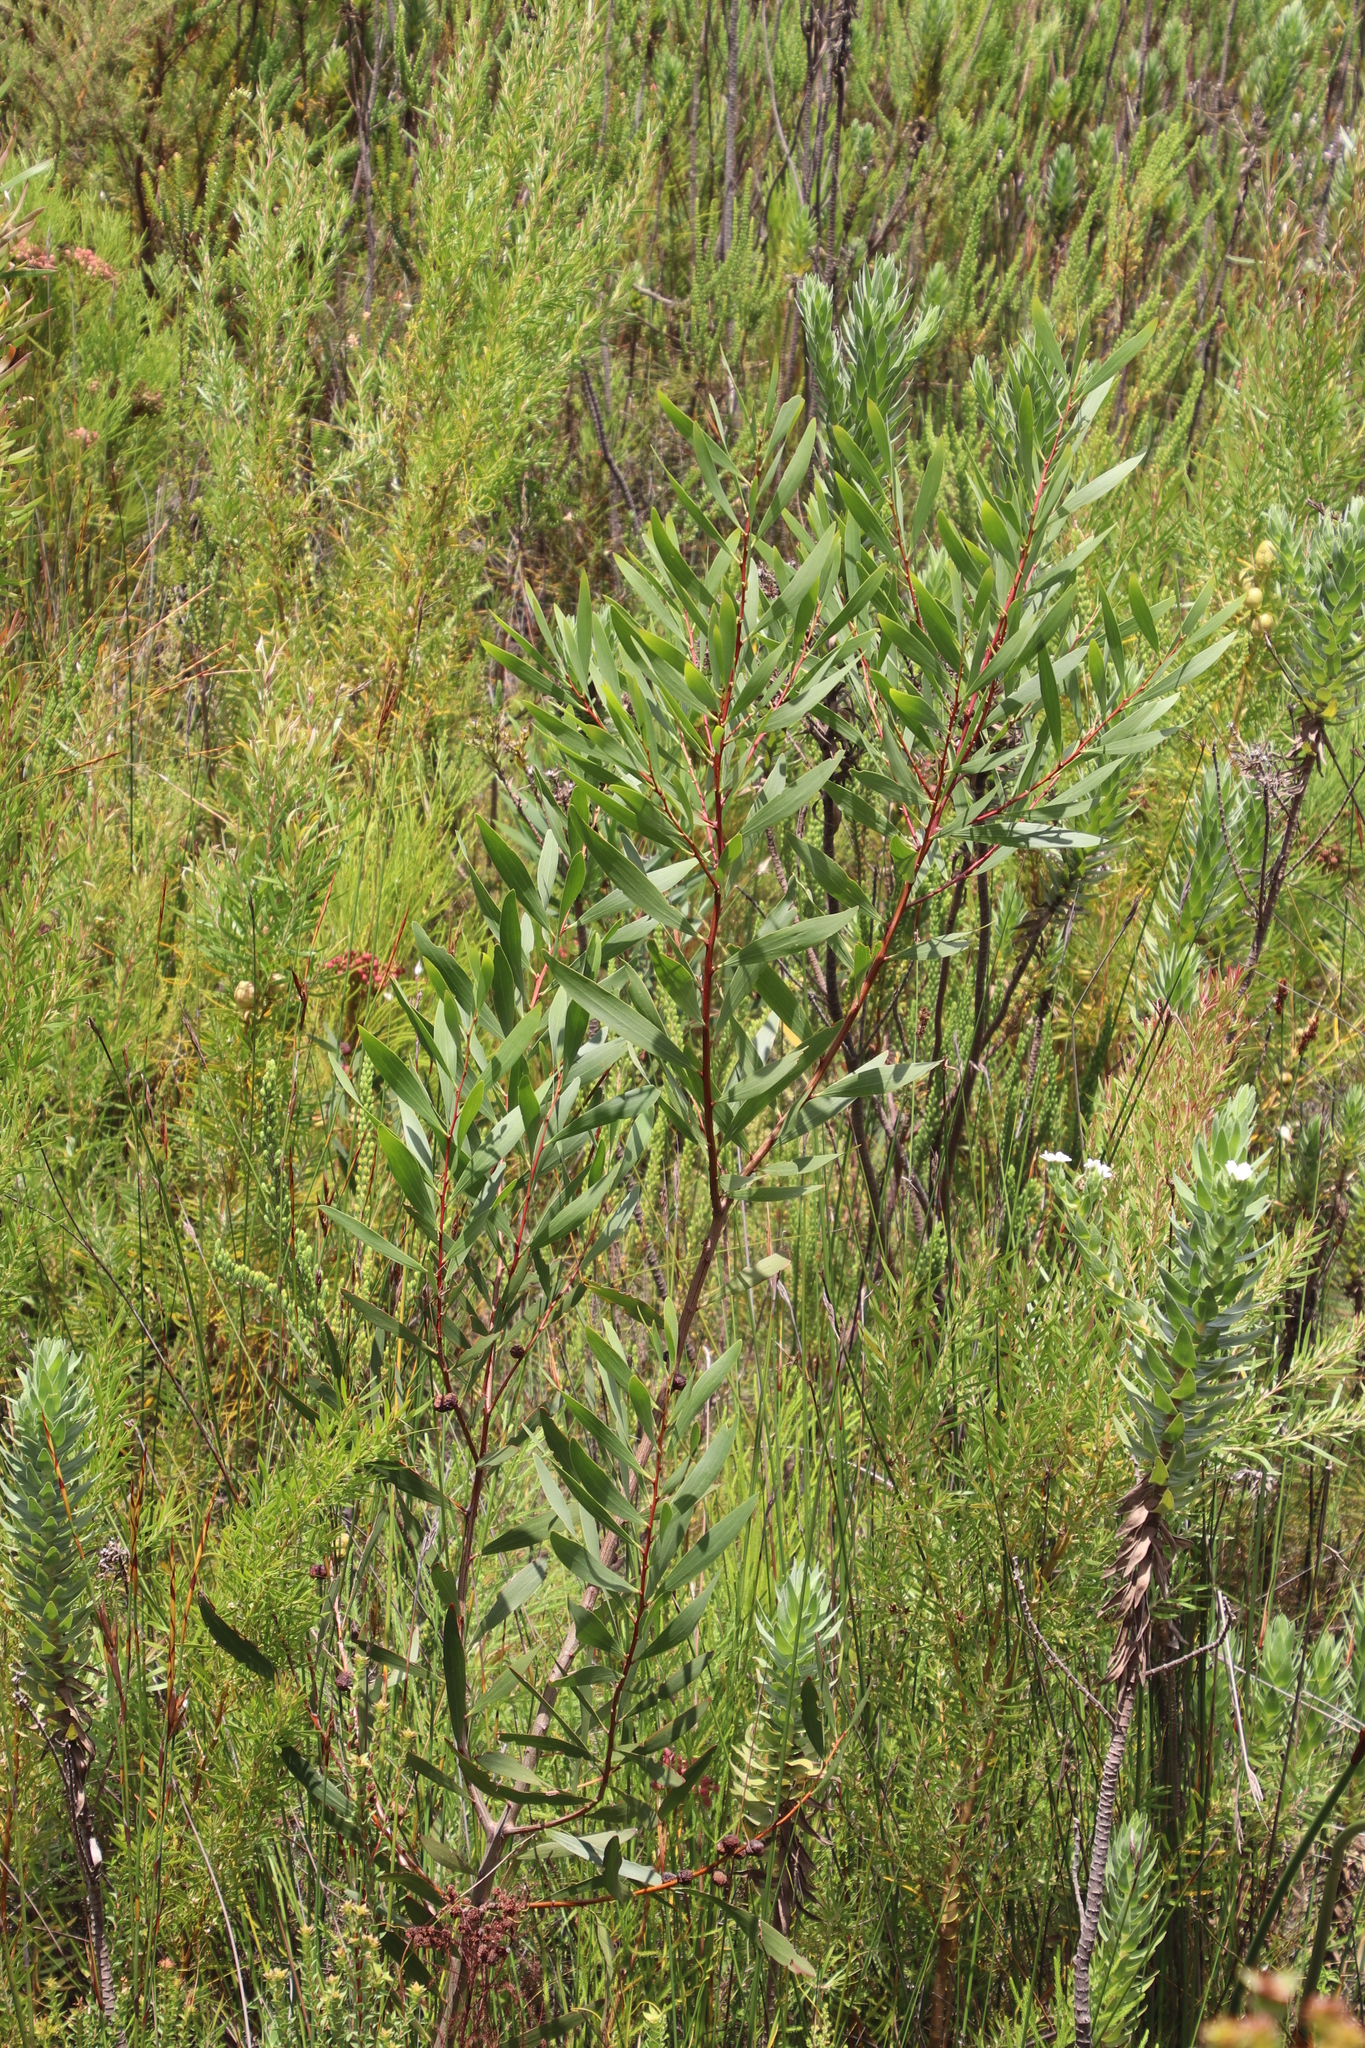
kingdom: Plantae
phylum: Tracheophyta
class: Magnoliopsida
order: Fabales
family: Fabaceae
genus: Acacia
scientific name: Acacia longifolia
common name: Sydney golden wattle
